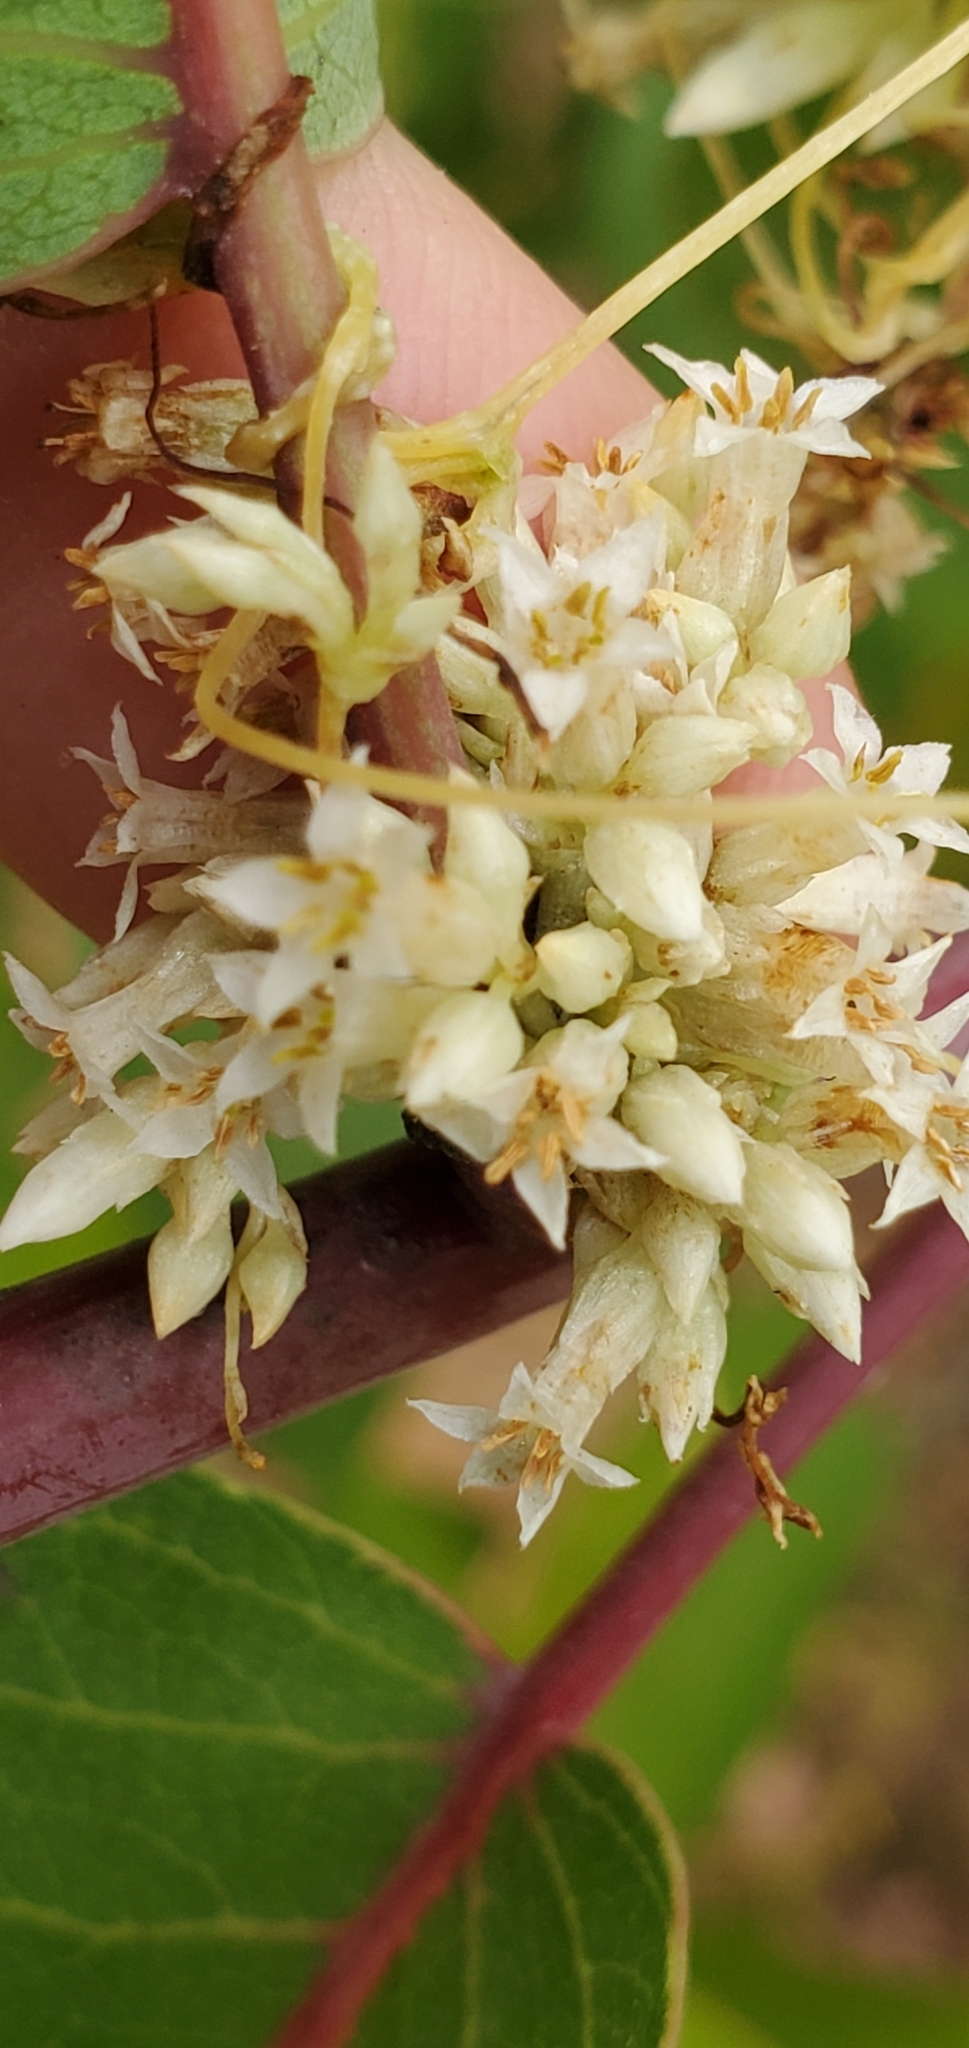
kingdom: Plantae
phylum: Tracheophyta
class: Magnoliopsida
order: Solanales
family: Convolvulaceae
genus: Cuscuta
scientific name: Cuscuta subinclusa
